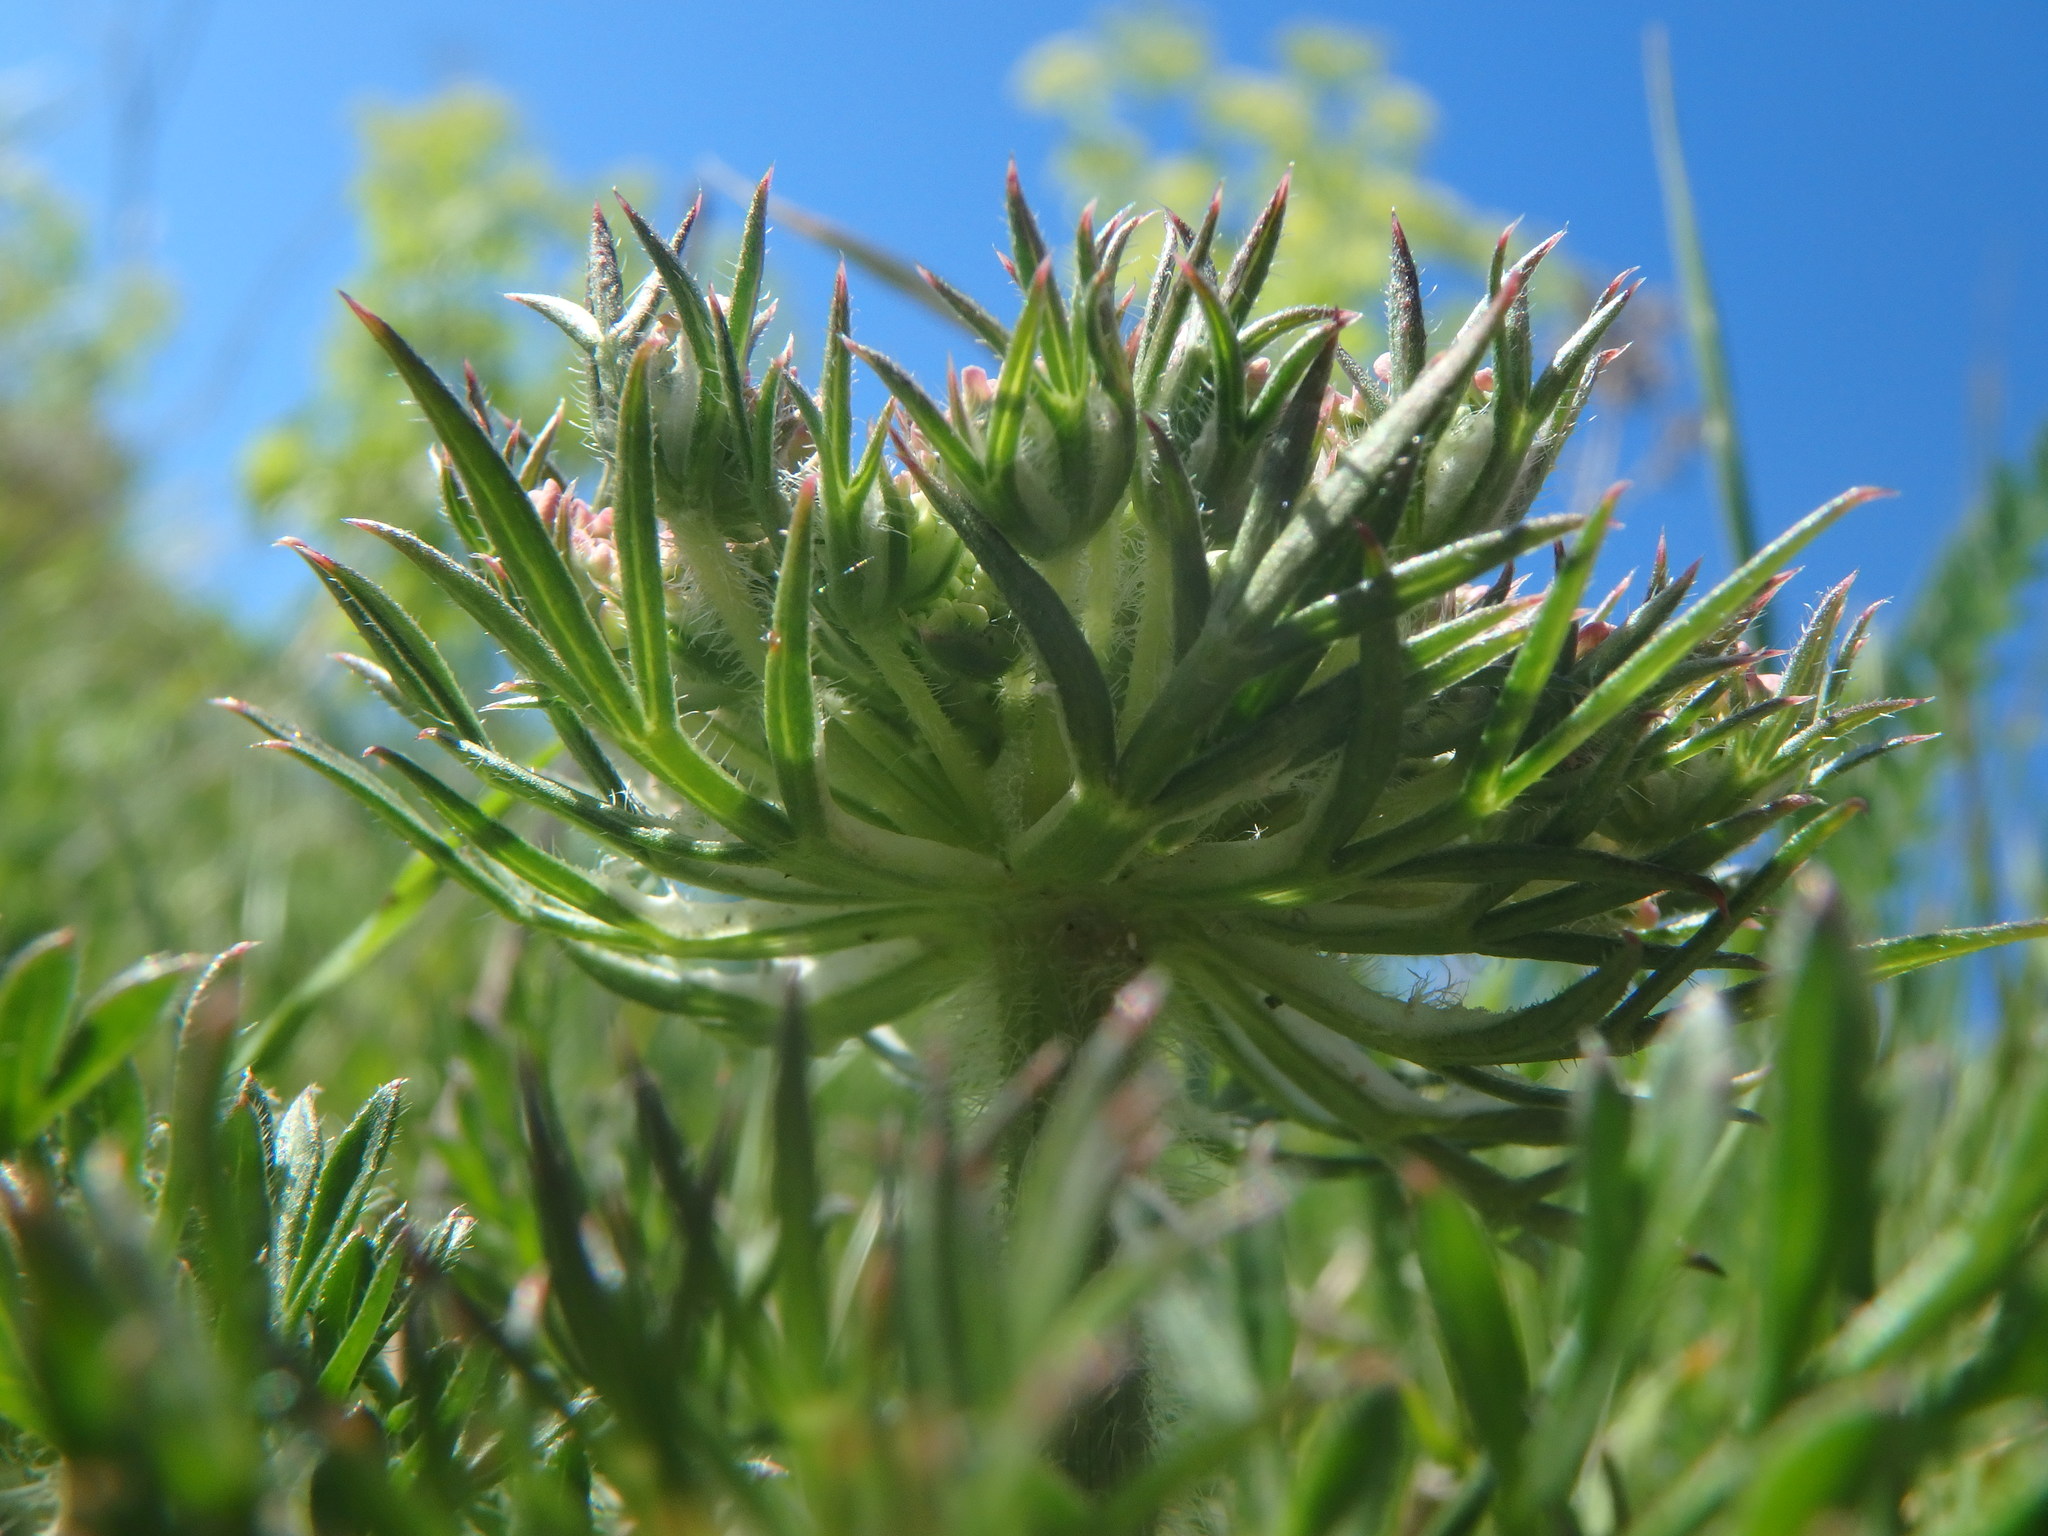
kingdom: Plantae
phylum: Tracheophyta
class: Magnoliopsida
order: Apiales
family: Apiaceae
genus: Daucus
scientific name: Daucus carota
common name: Wild carrot
